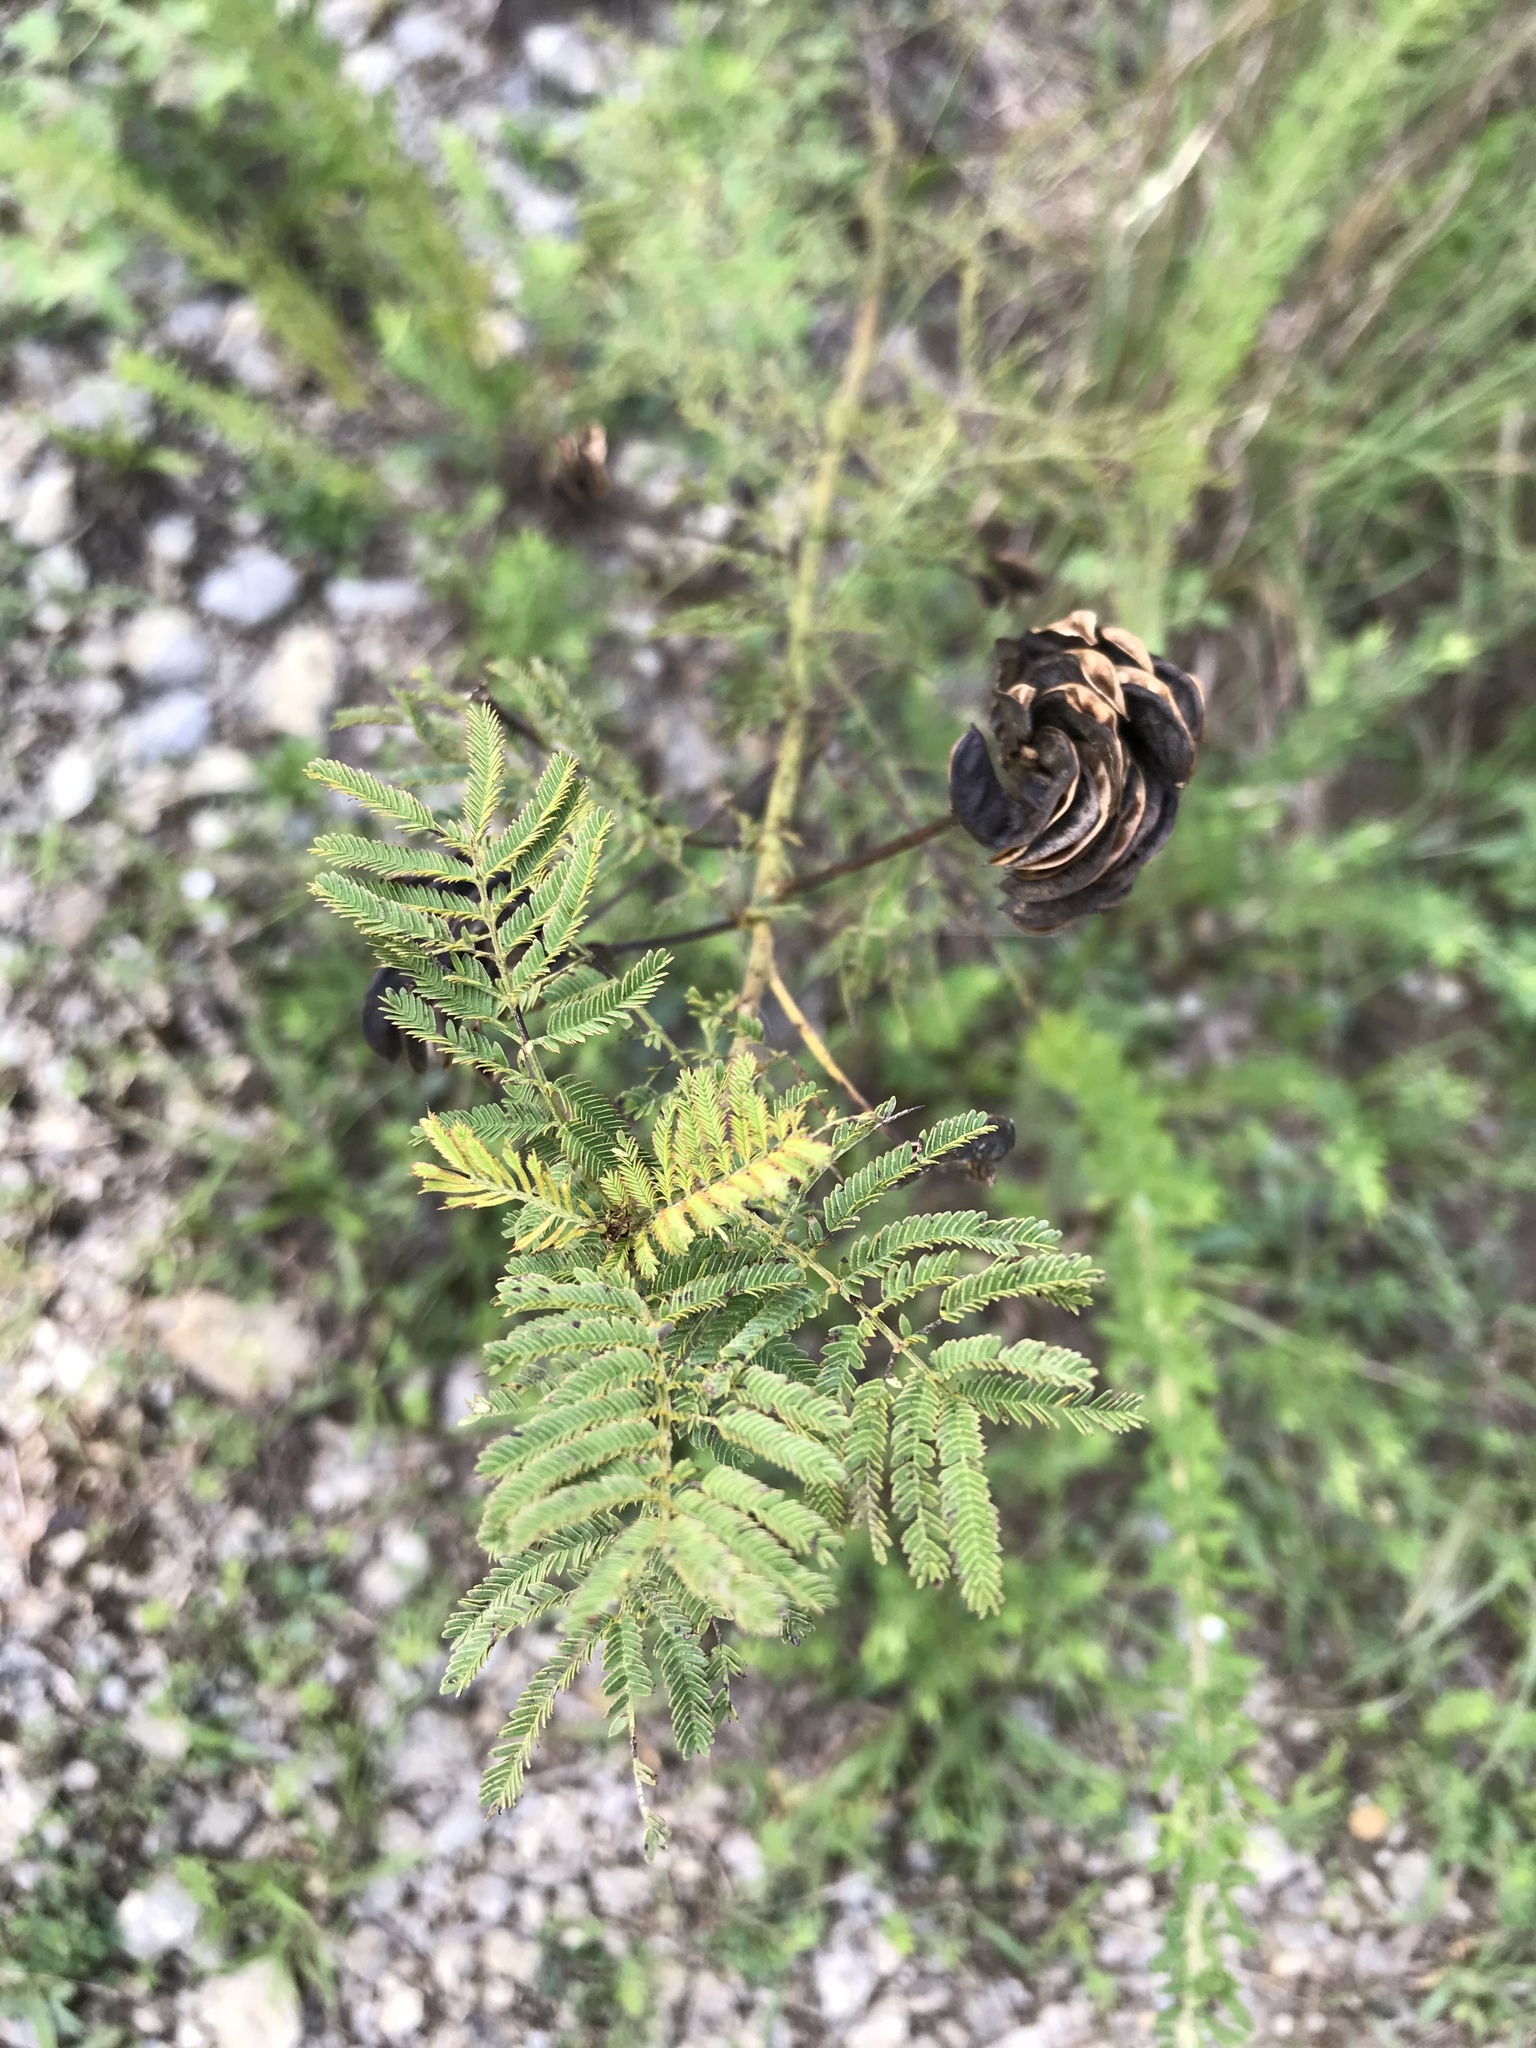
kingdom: Plantae
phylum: Tracheophyta
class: Magnoliopsida
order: Fabales
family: Fabaceae
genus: Desmanthus
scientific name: Desmanthus illinoensis
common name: Illinois bundle-flower
